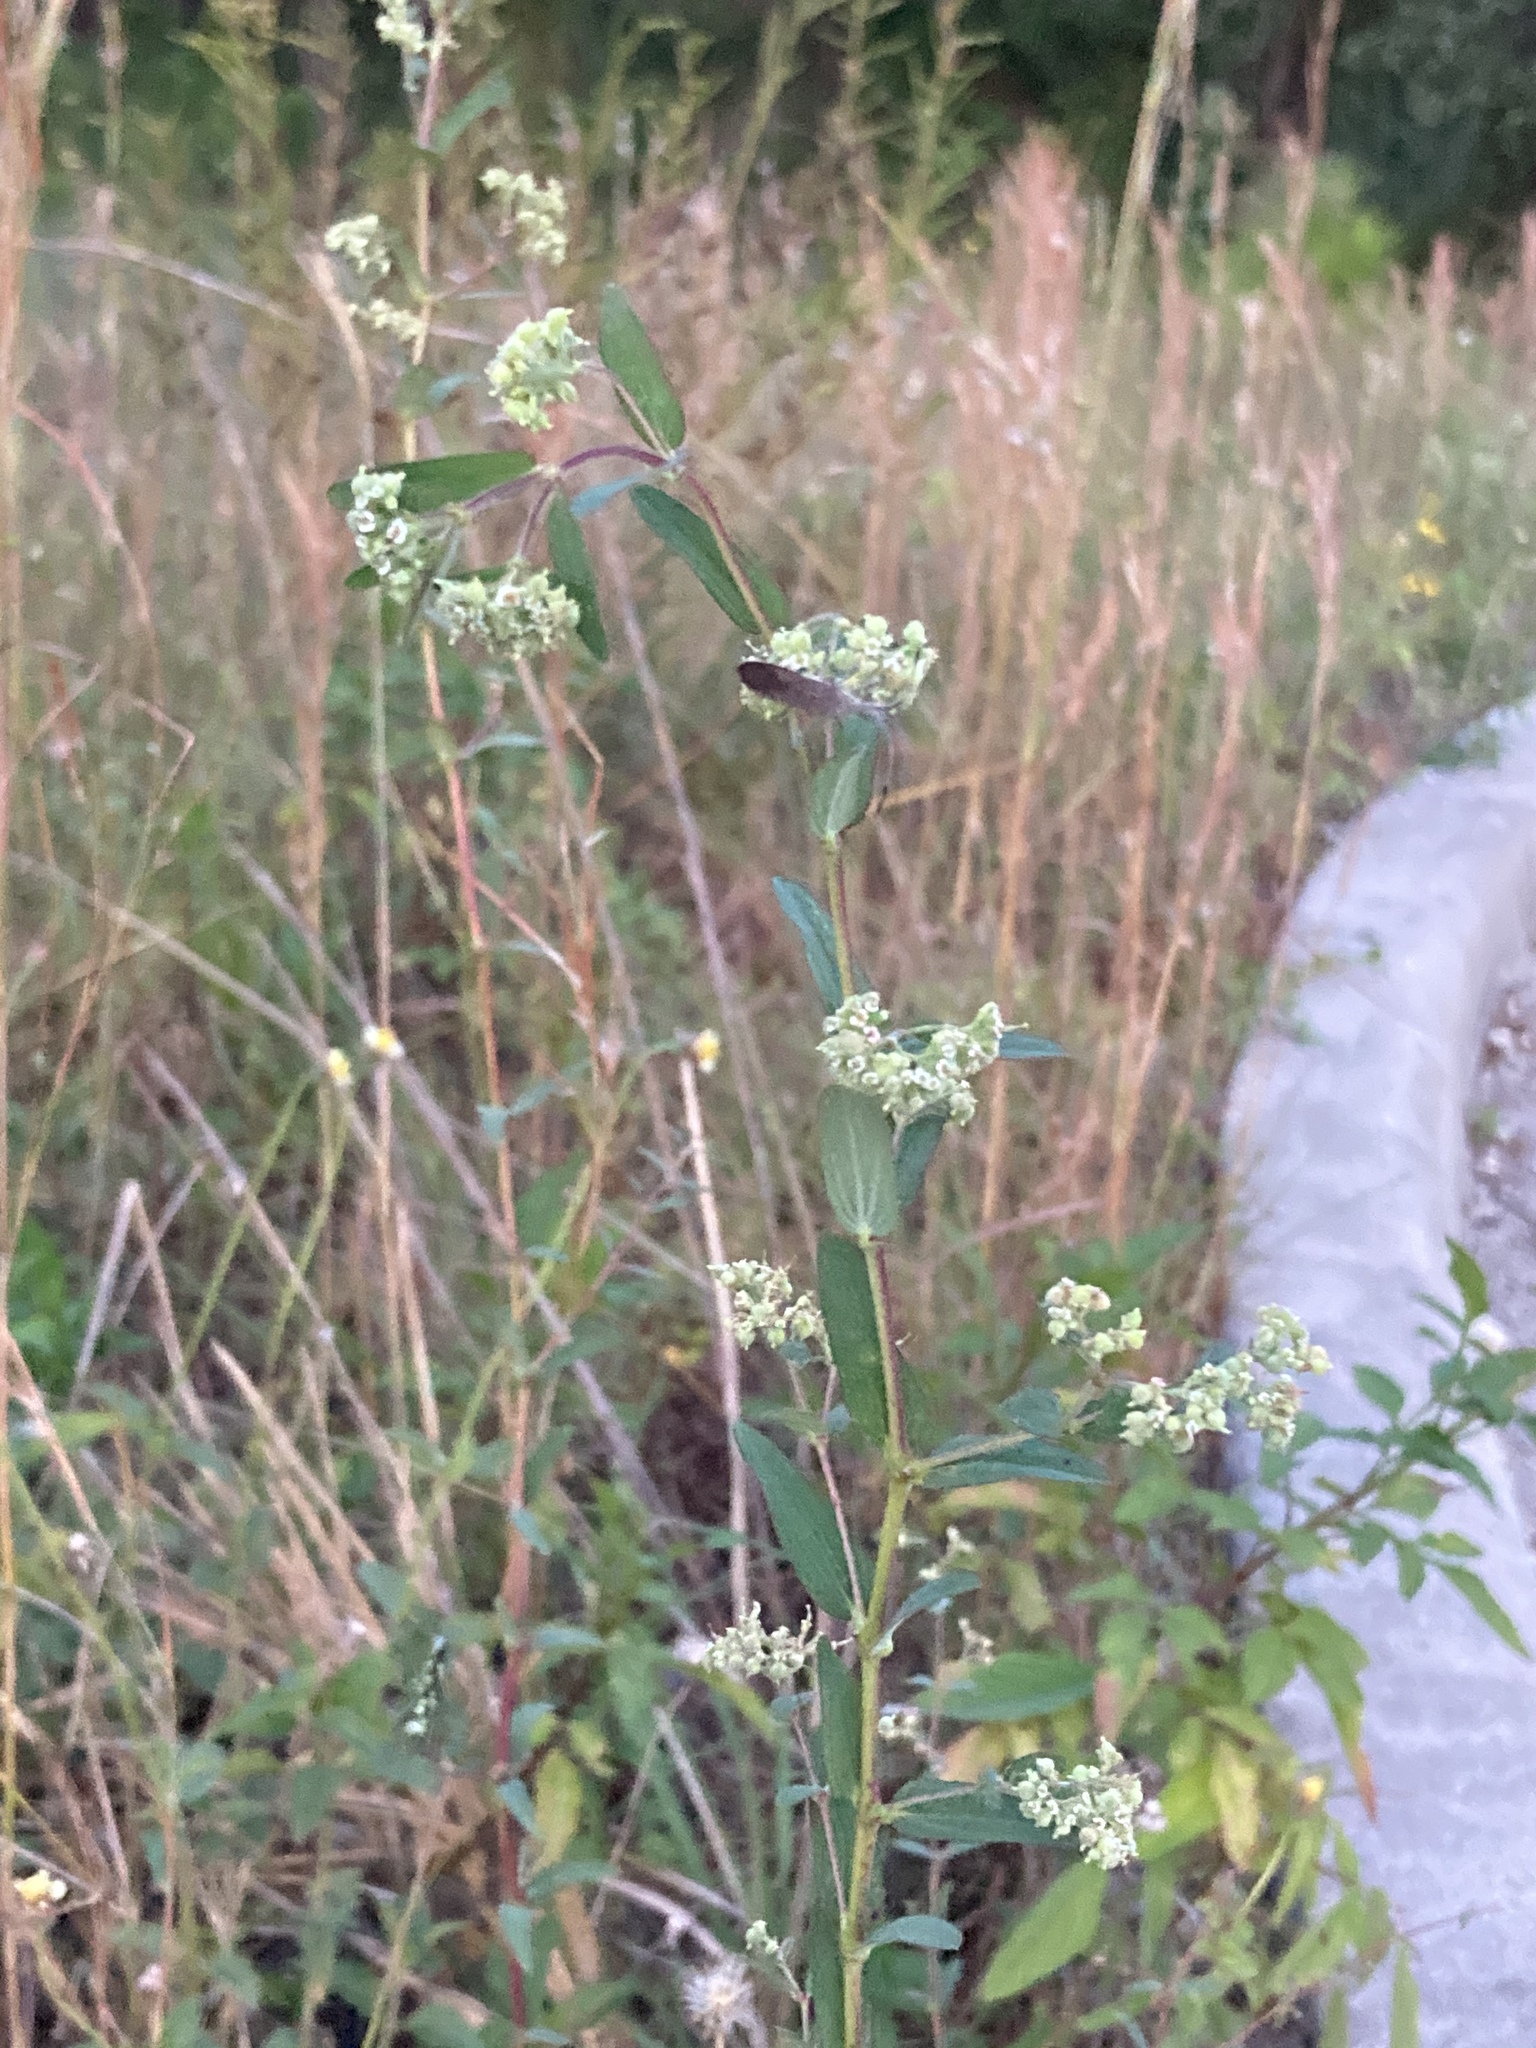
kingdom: Plantae
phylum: Tracheophyta
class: Magnoliopsida
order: Malpighiales
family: Euphorbiaceae
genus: Euphorbia
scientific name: Euphorbia lasiocarpa
